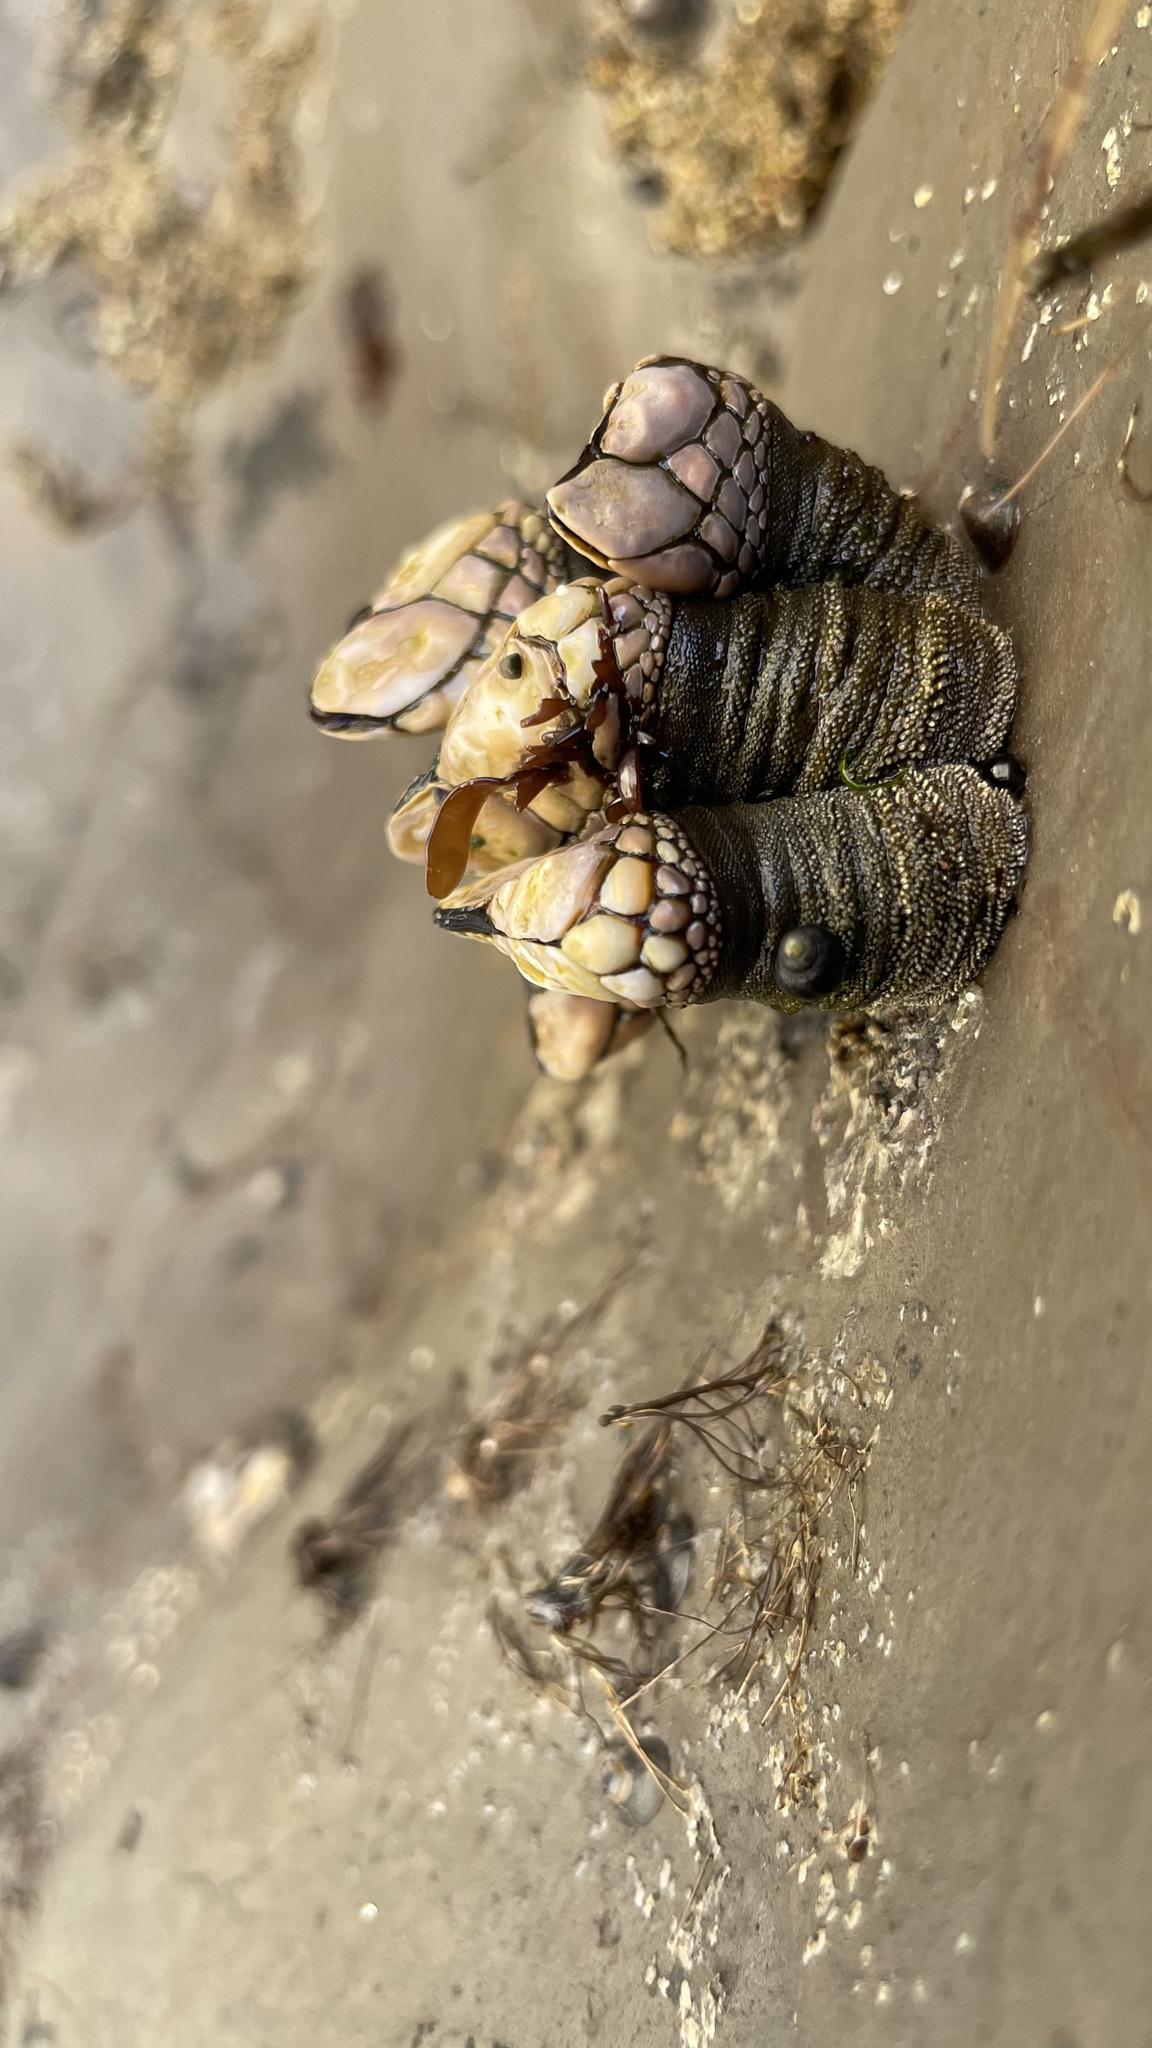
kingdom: Animalia
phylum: Arthropoda
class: Maxillopoda
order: Pedunculata
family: Pollicipedidae
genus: Pollicipes
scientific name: Pollicipes polymerus
